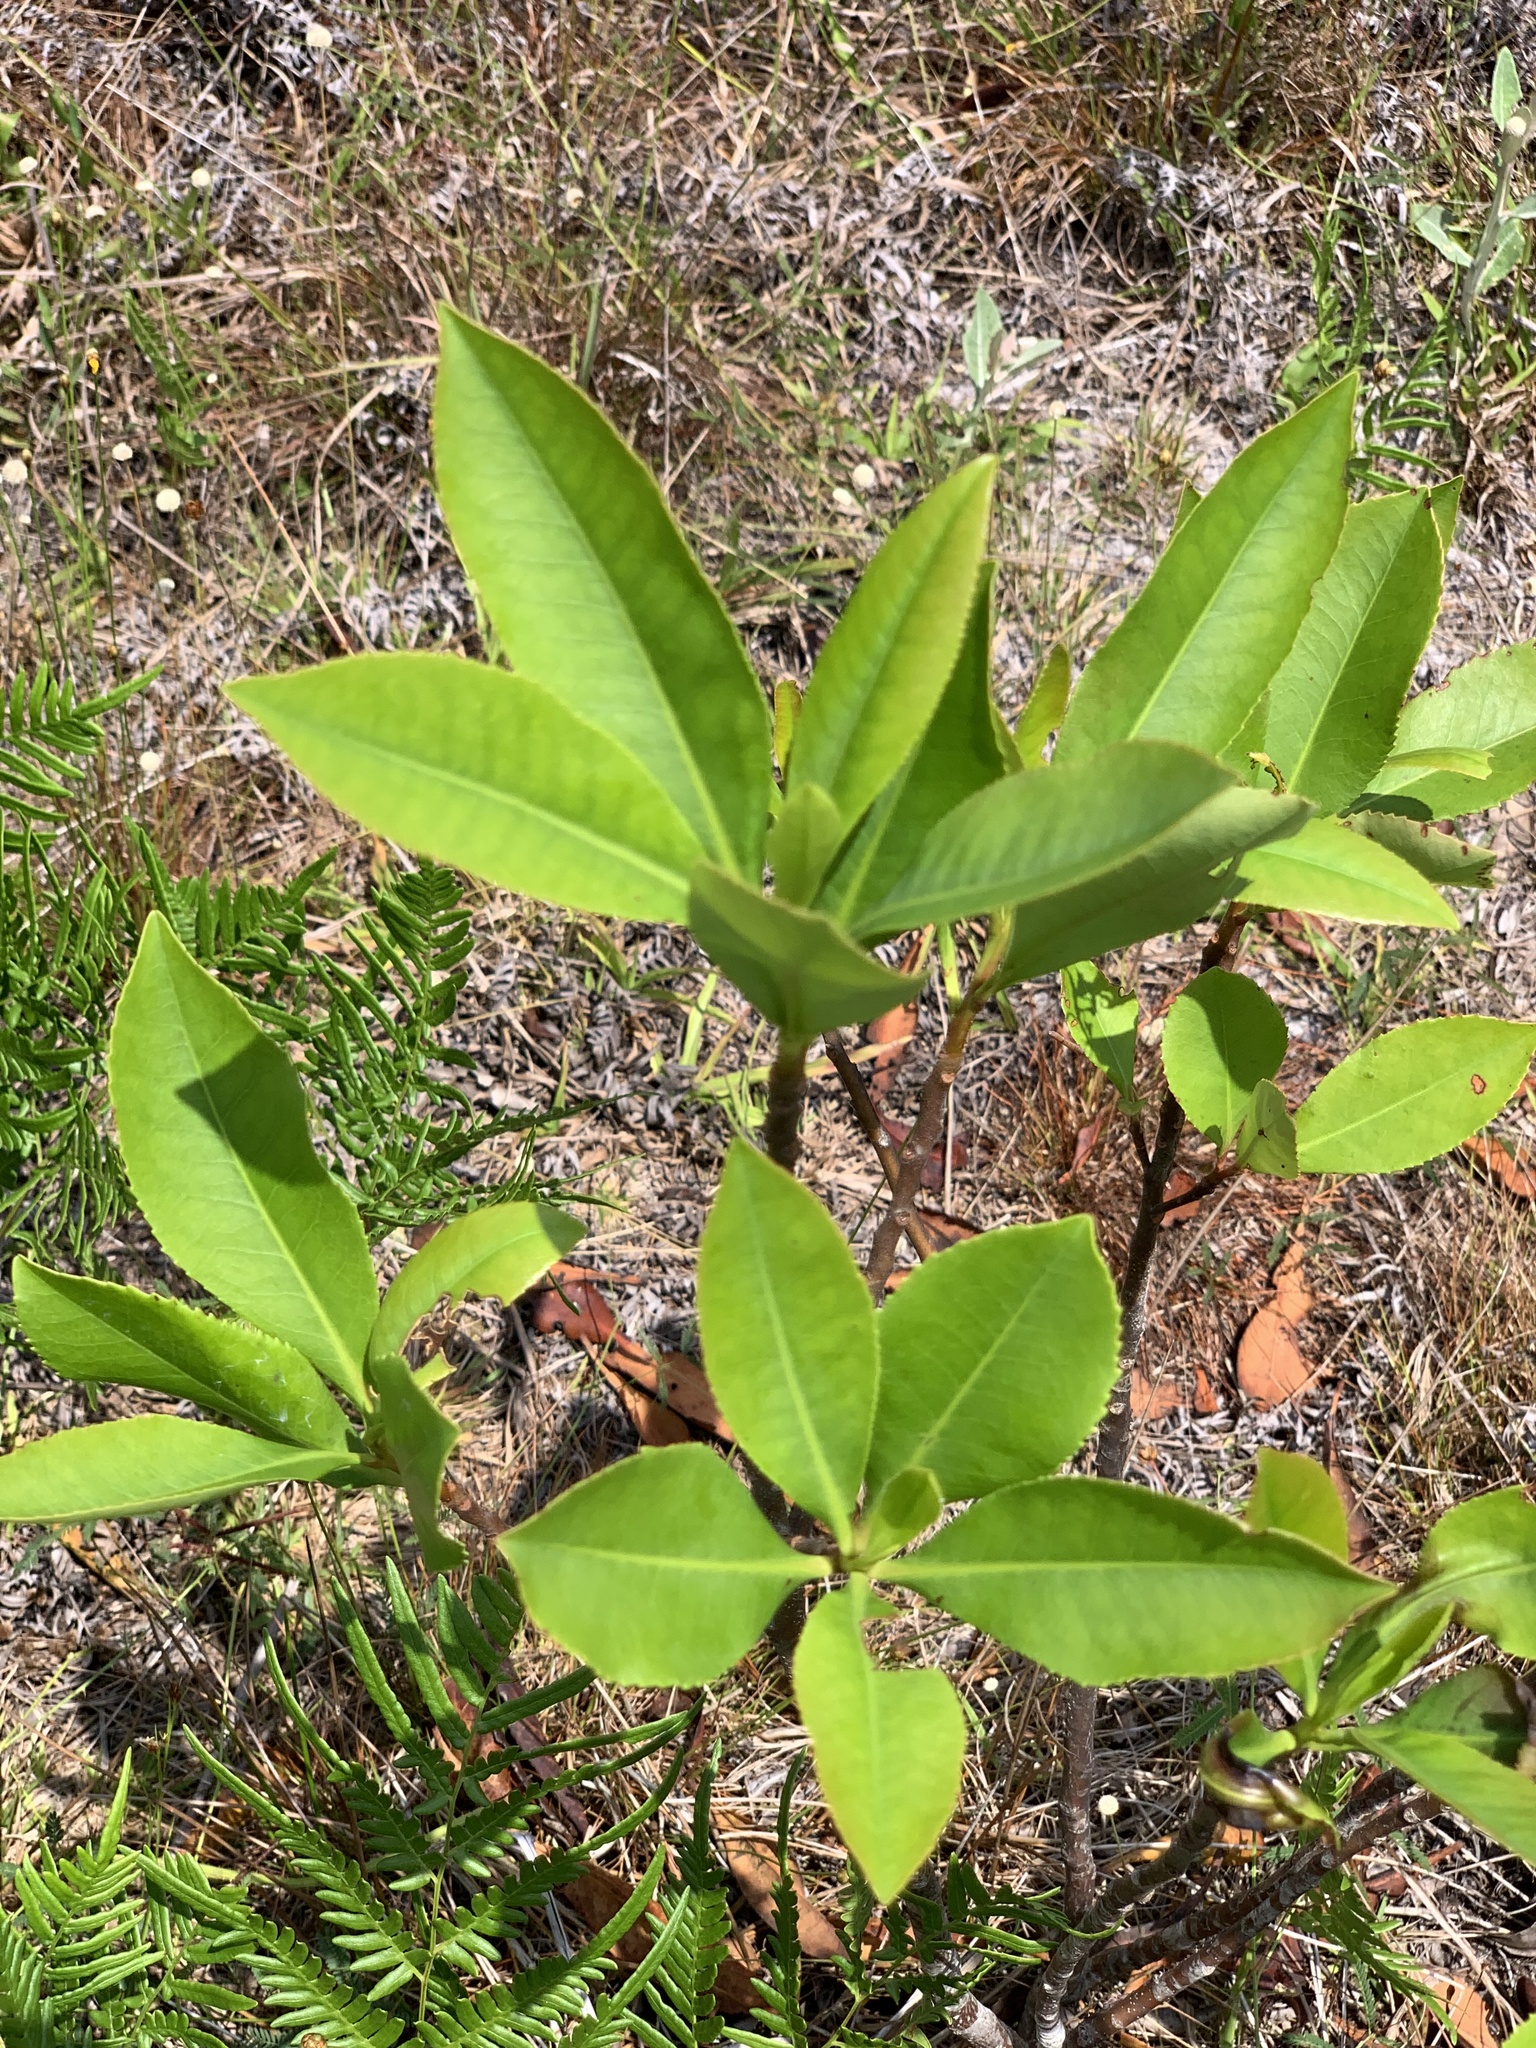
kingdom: Plantae
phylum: Tracheophyta
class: Magnoliopsida
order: Ericales
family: Theaceae
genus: Gordonia
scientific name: Gordonia lasianthus
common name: Loblolly bay
